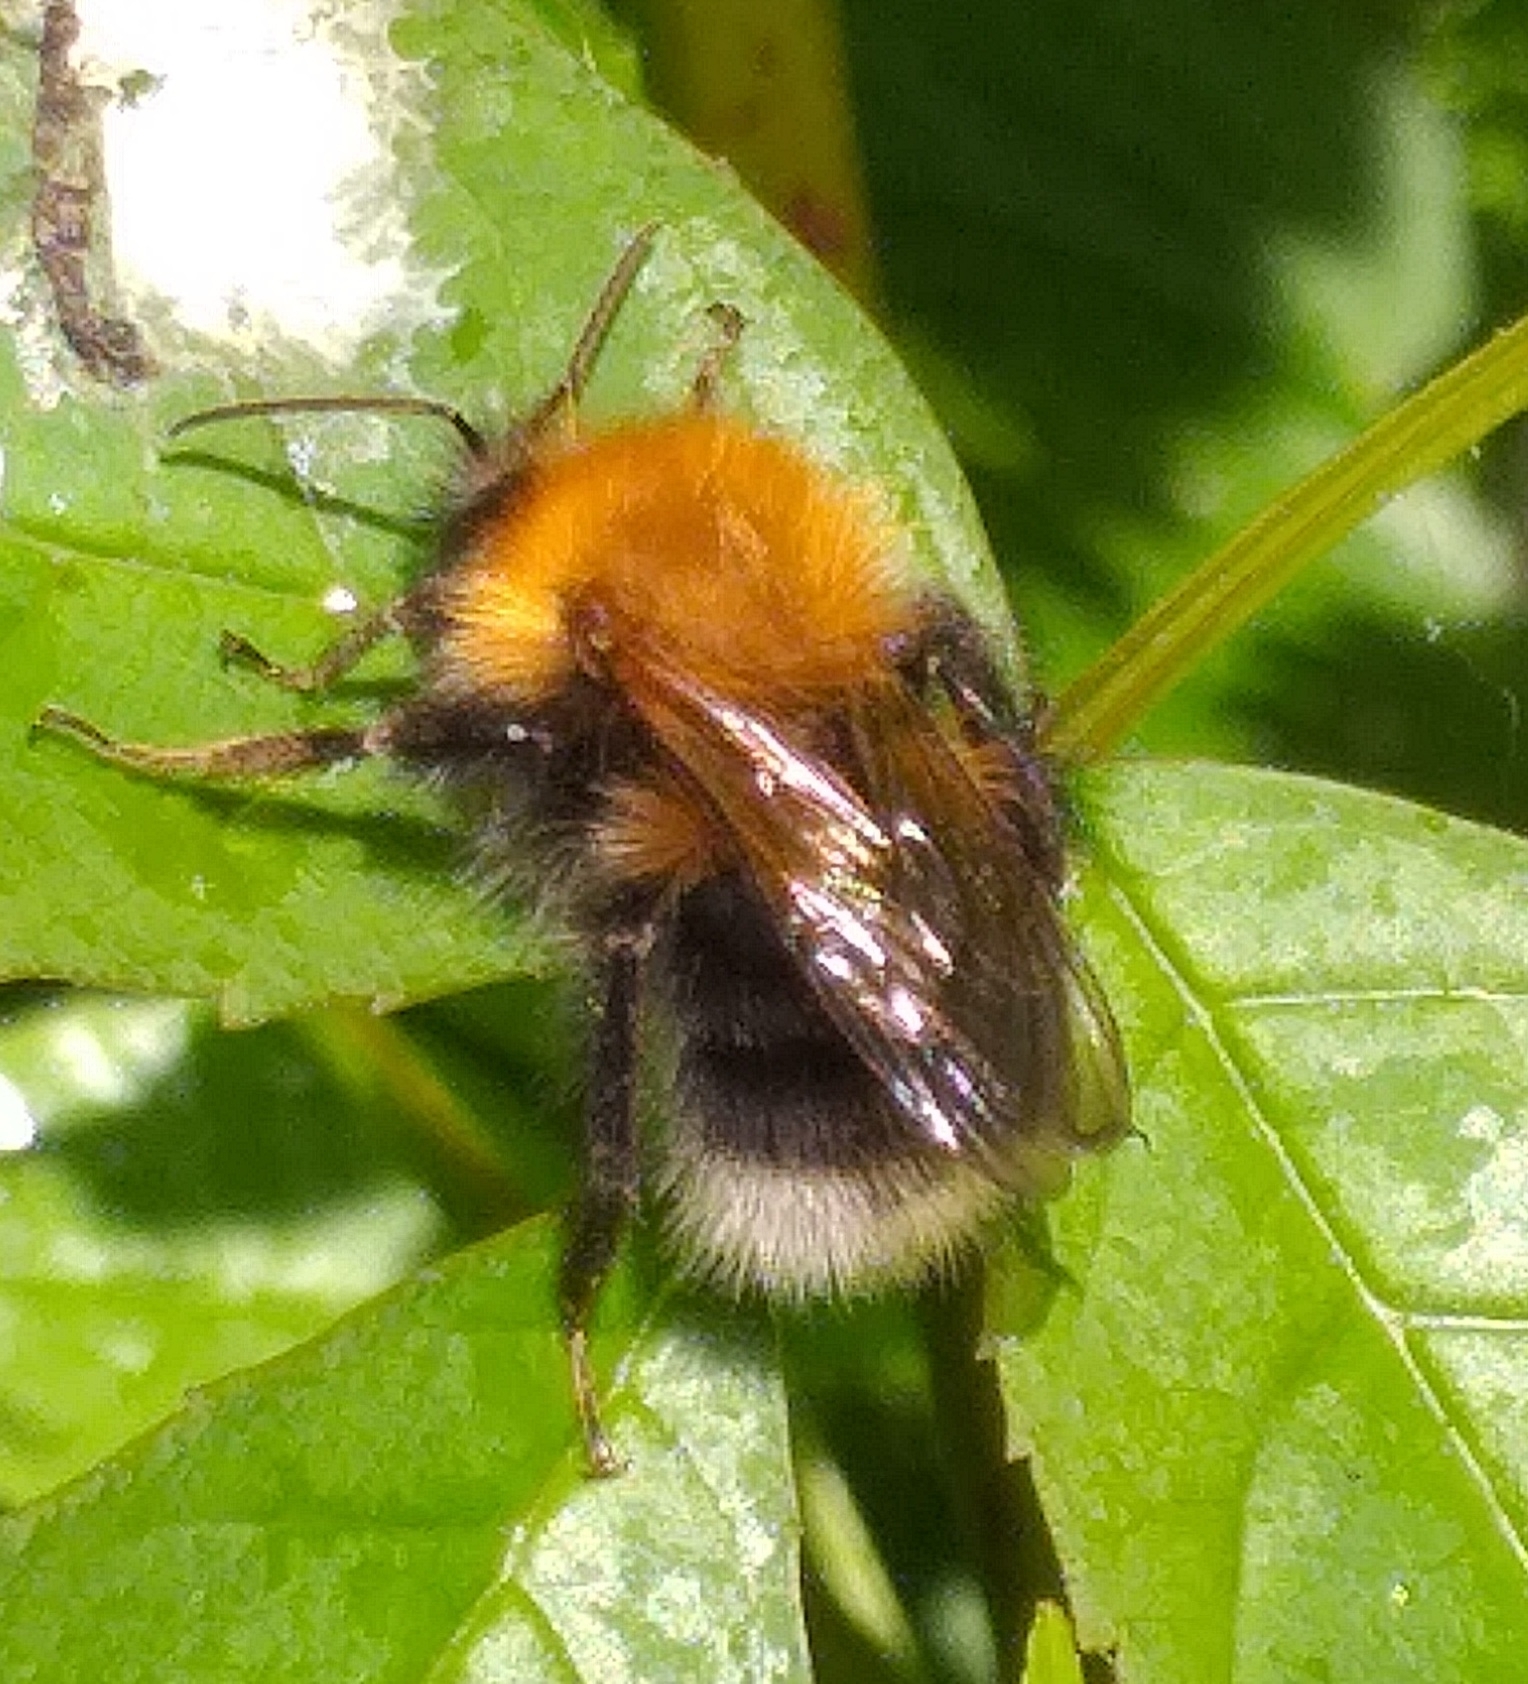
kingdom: Animalia
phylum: Arthropoda
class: Insecta
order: Hymenoptera
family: Apidae
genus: Bombus
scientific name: Bombus hypnorum
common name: New garden bumblebee
